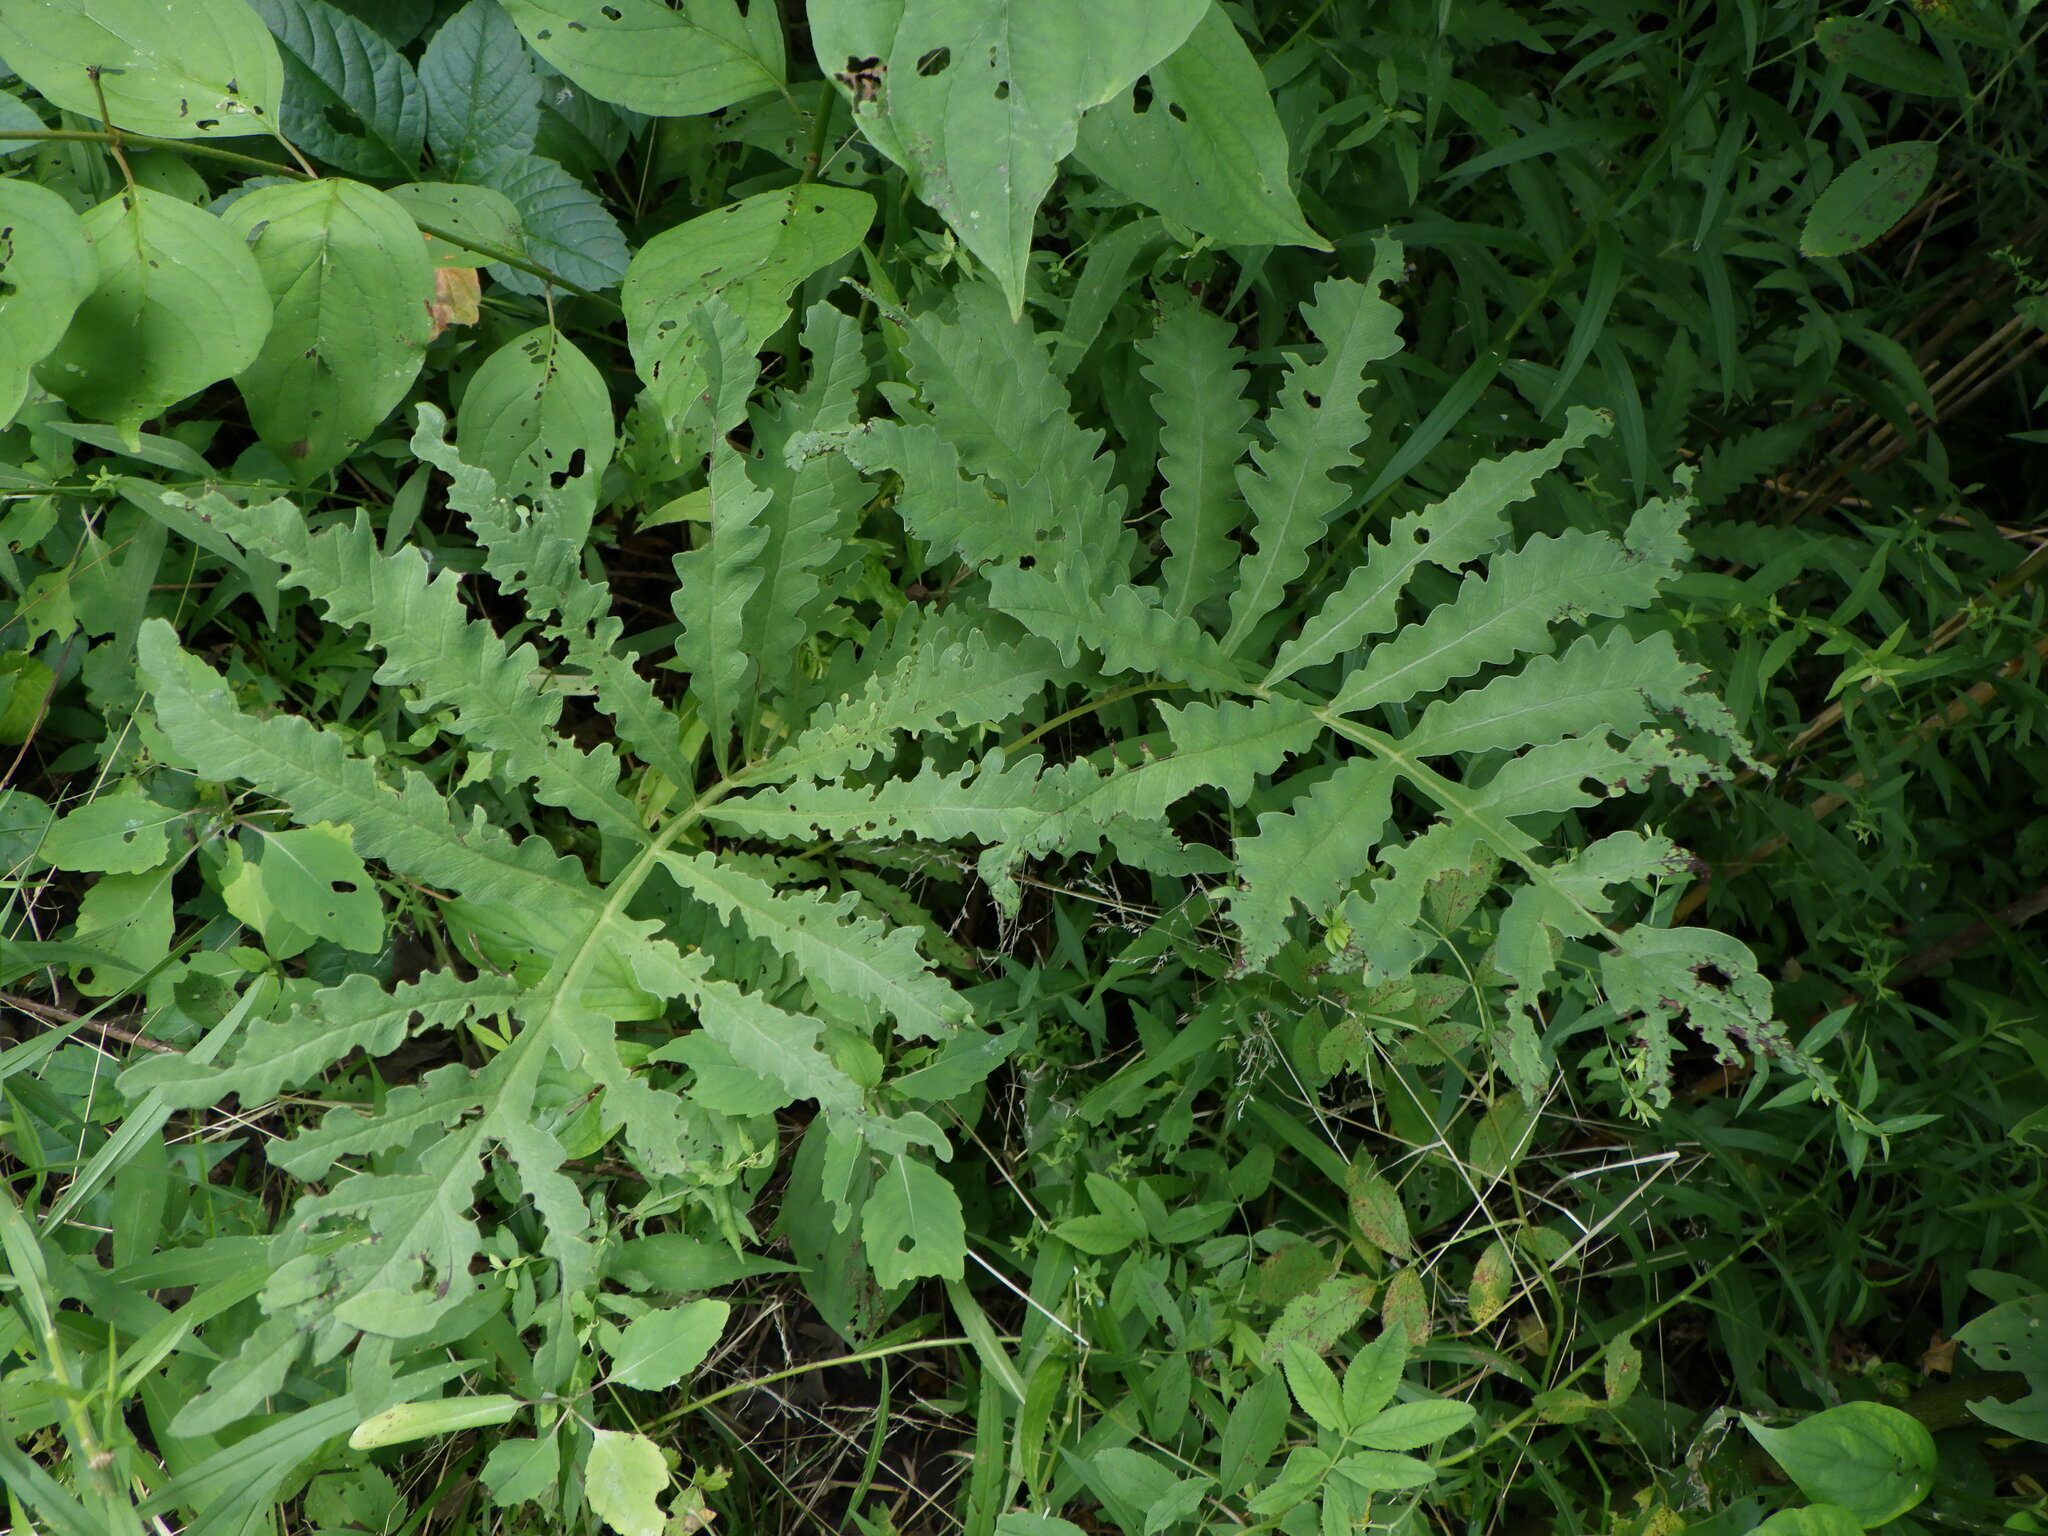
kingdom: Plantae
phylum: Tracheophyta
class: Polypodiopsida
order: Polypodiales
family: Onocleaceae
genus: Onoclea
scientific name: Onoclea sensibilis
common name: Sensitive fern
